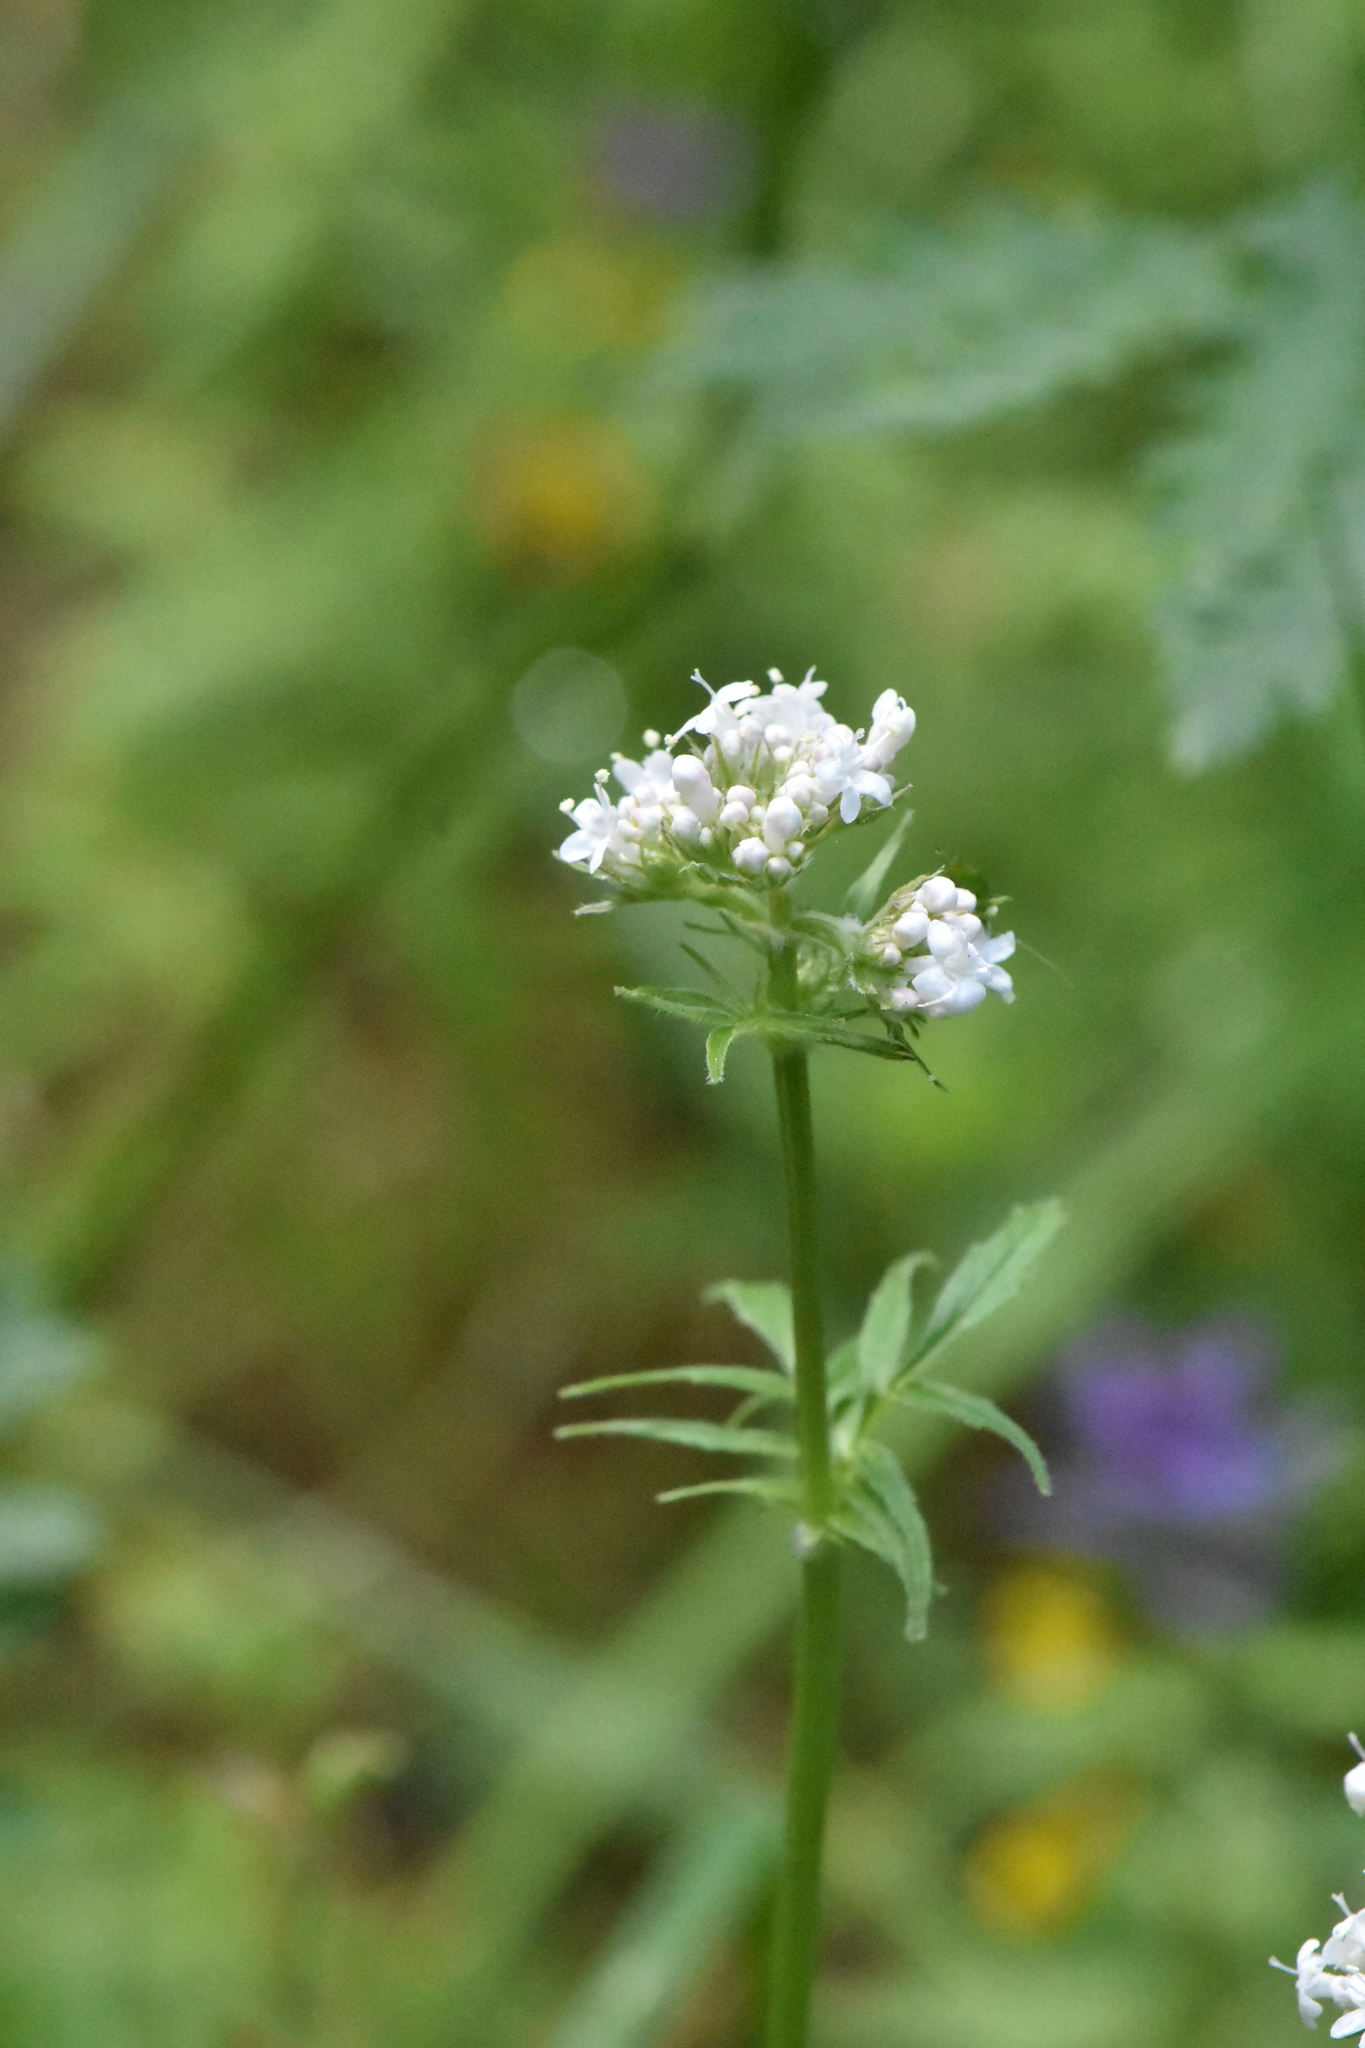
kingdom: Plantae
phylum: Tracheophyta
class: Magnoliopsida
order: Dipsacales
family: Caprifoliaceae
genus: Valeriana
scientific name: Valeriana officinalis
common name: Common valerian
